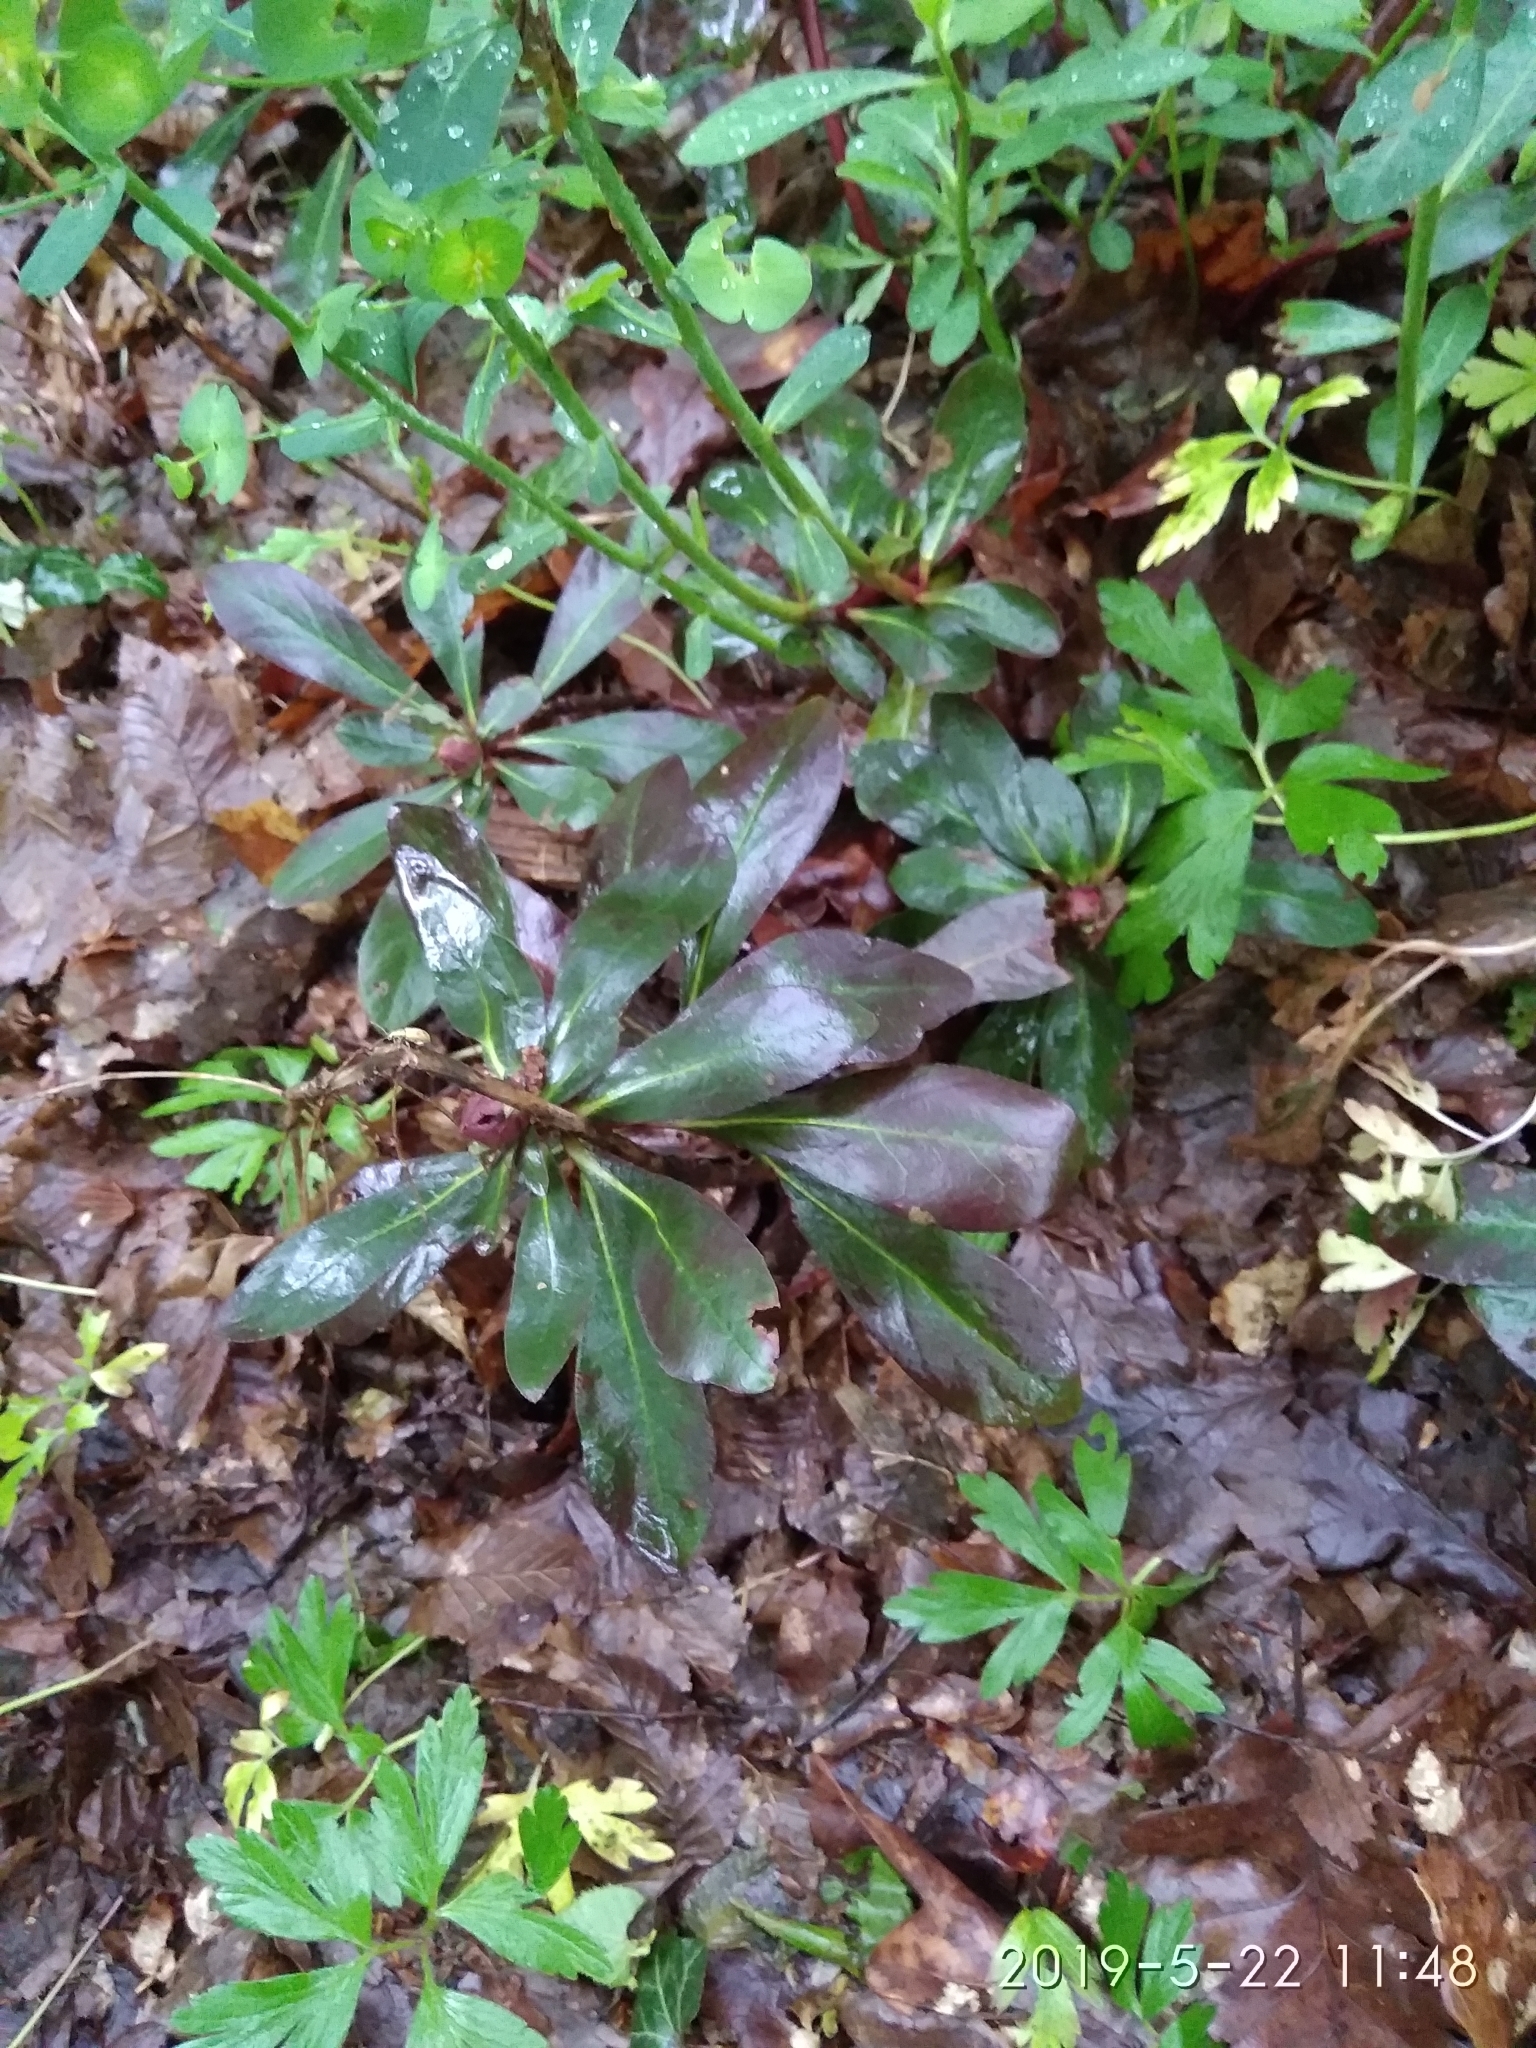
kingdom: Plantae
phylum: Tracheophyta
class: Magnoliopsida
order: Malpighiales
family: Euphorbiaceae
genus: Euphorbia
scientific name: Euphorbia amygdaloides
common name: Wood spurge
